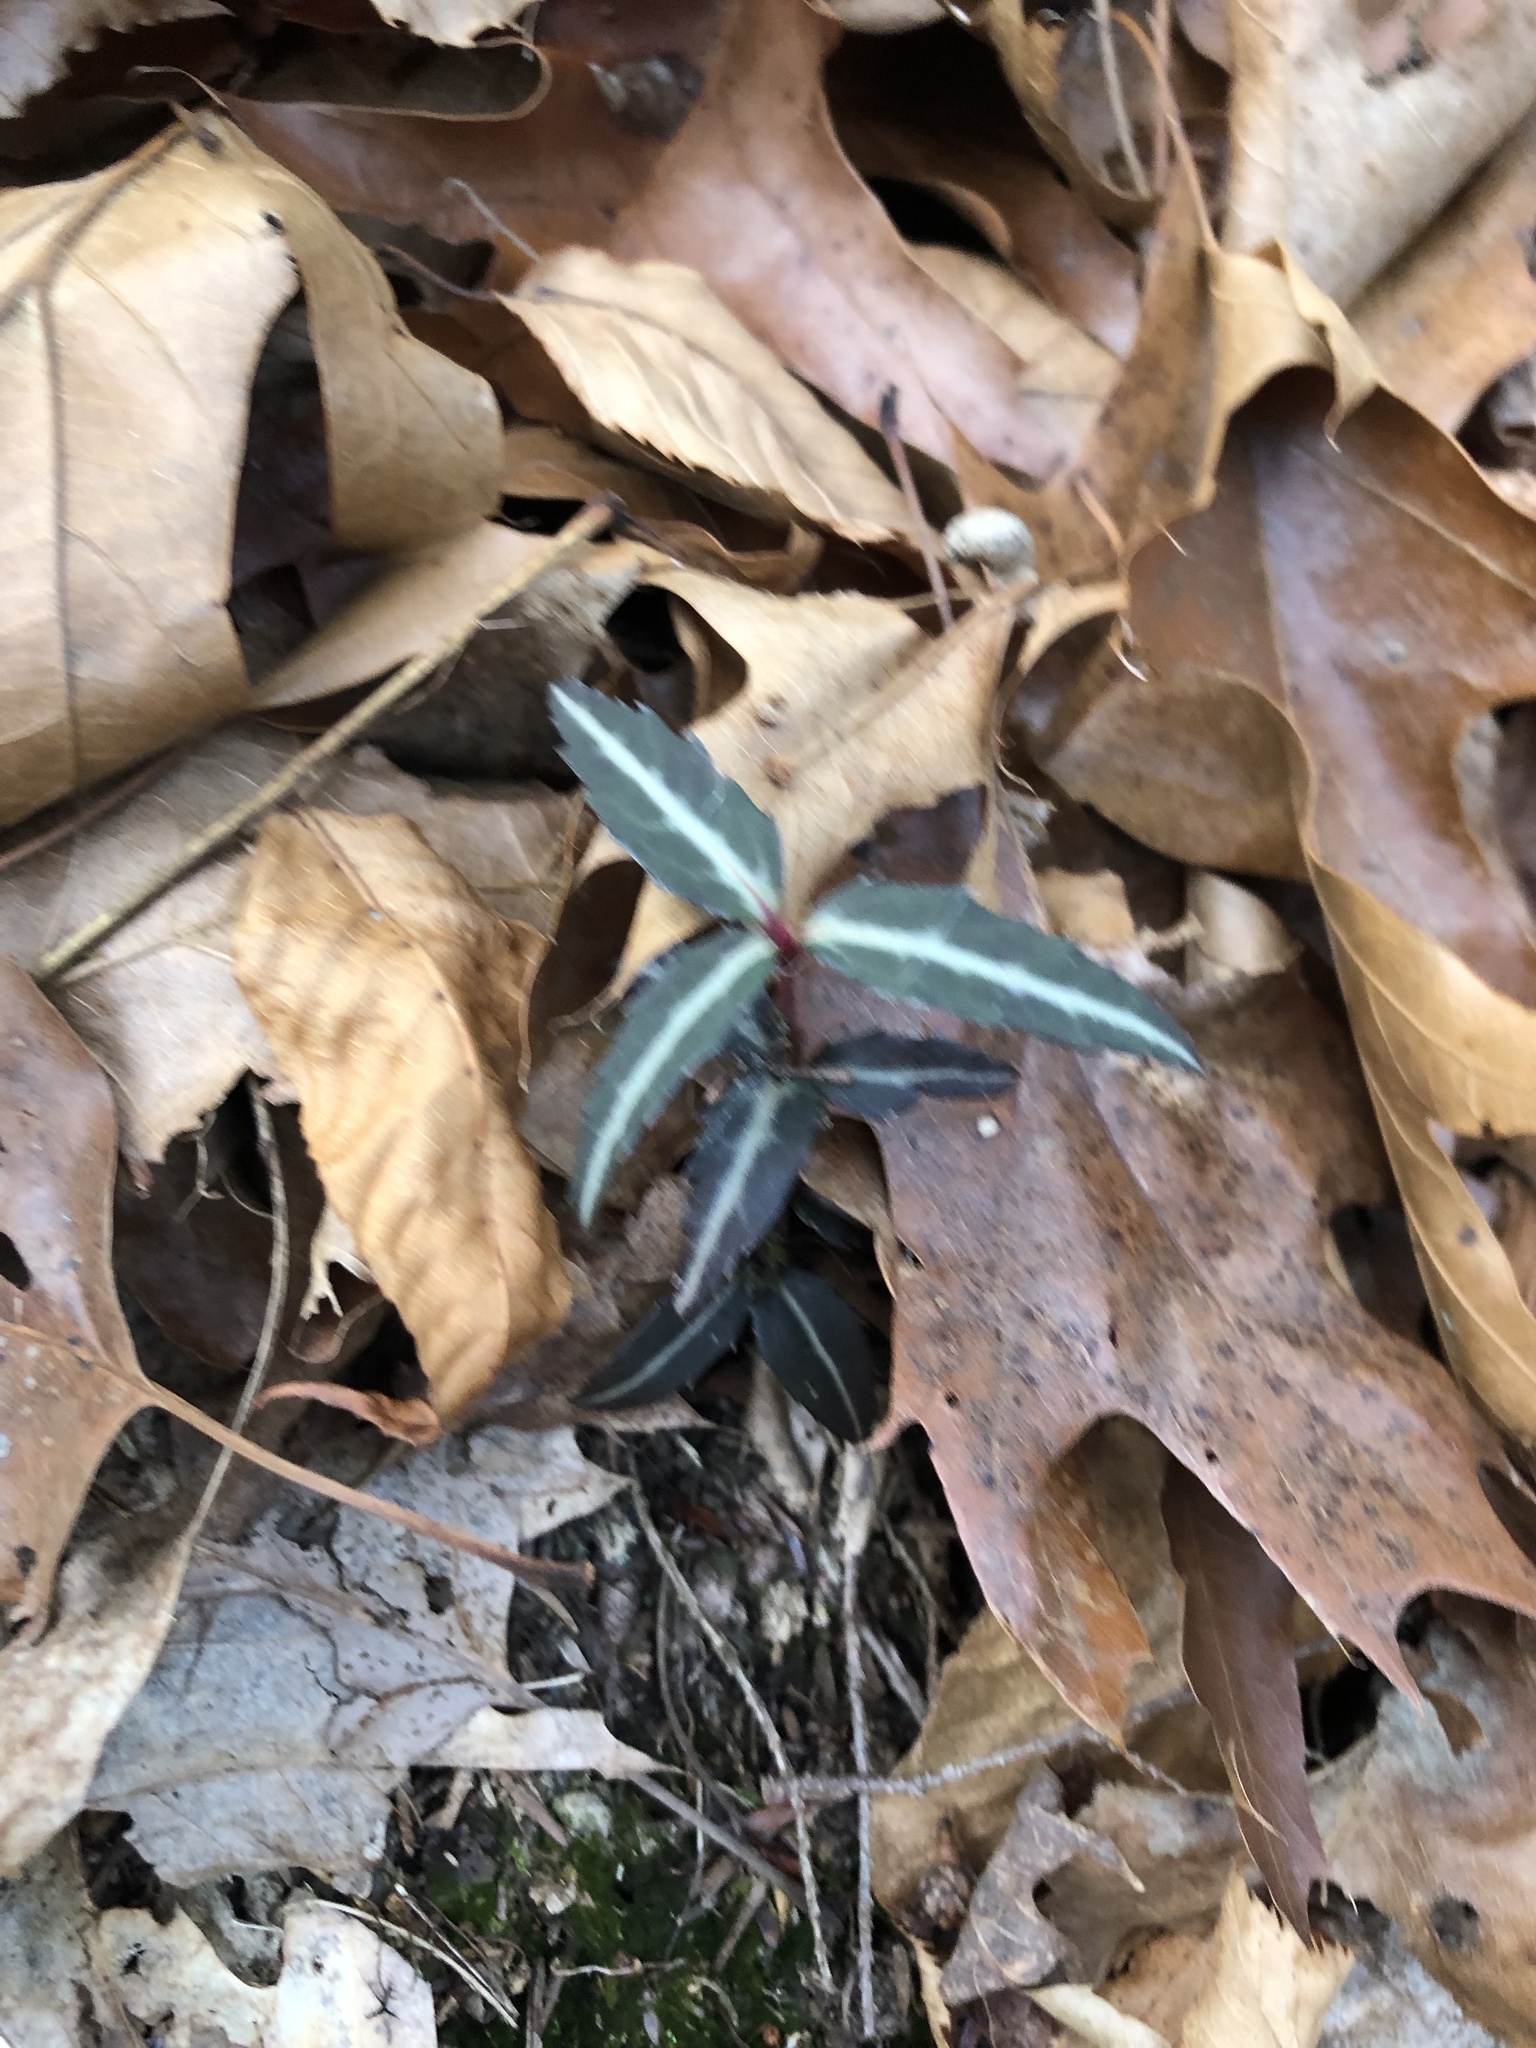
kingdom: Plantae
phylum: Tracheophyta
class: Magnoliopsida
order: Ericales
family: Ericaceae
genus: Chimaphila
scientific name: Chimaphila maculata
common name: Spotted pipsissewa
